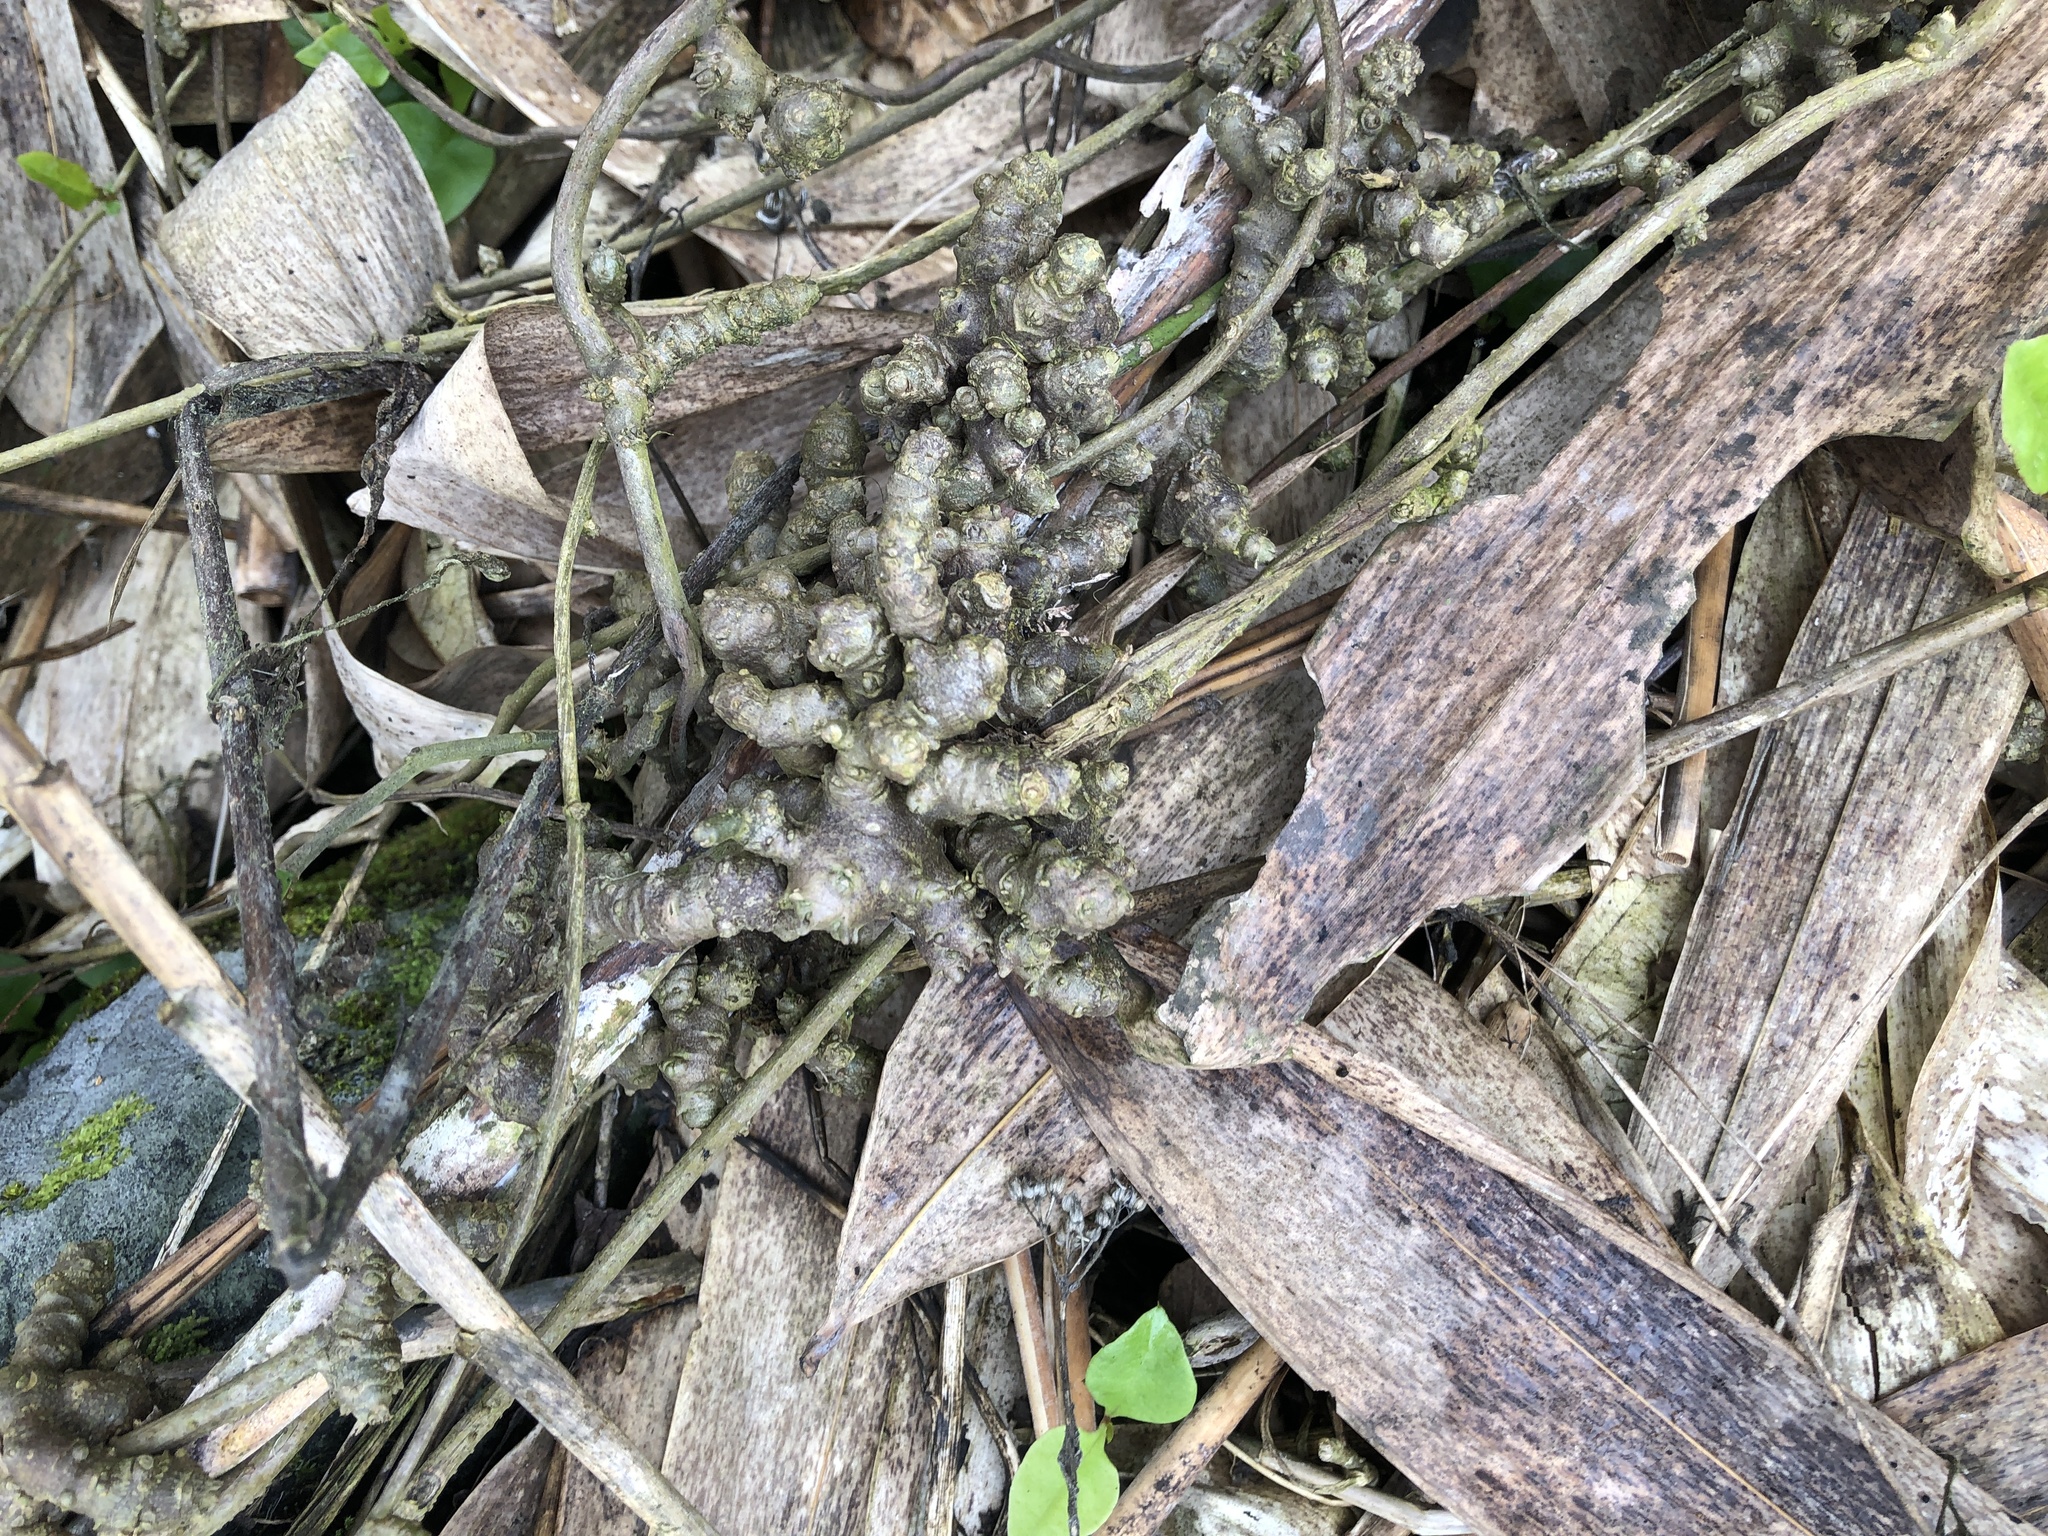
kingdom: Plantae
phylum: Tracheophyta
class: Magnoliopsida
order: Caryophyllales
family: Basellaceae
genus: Basella
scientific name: Basella alba
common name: Indian spinach
